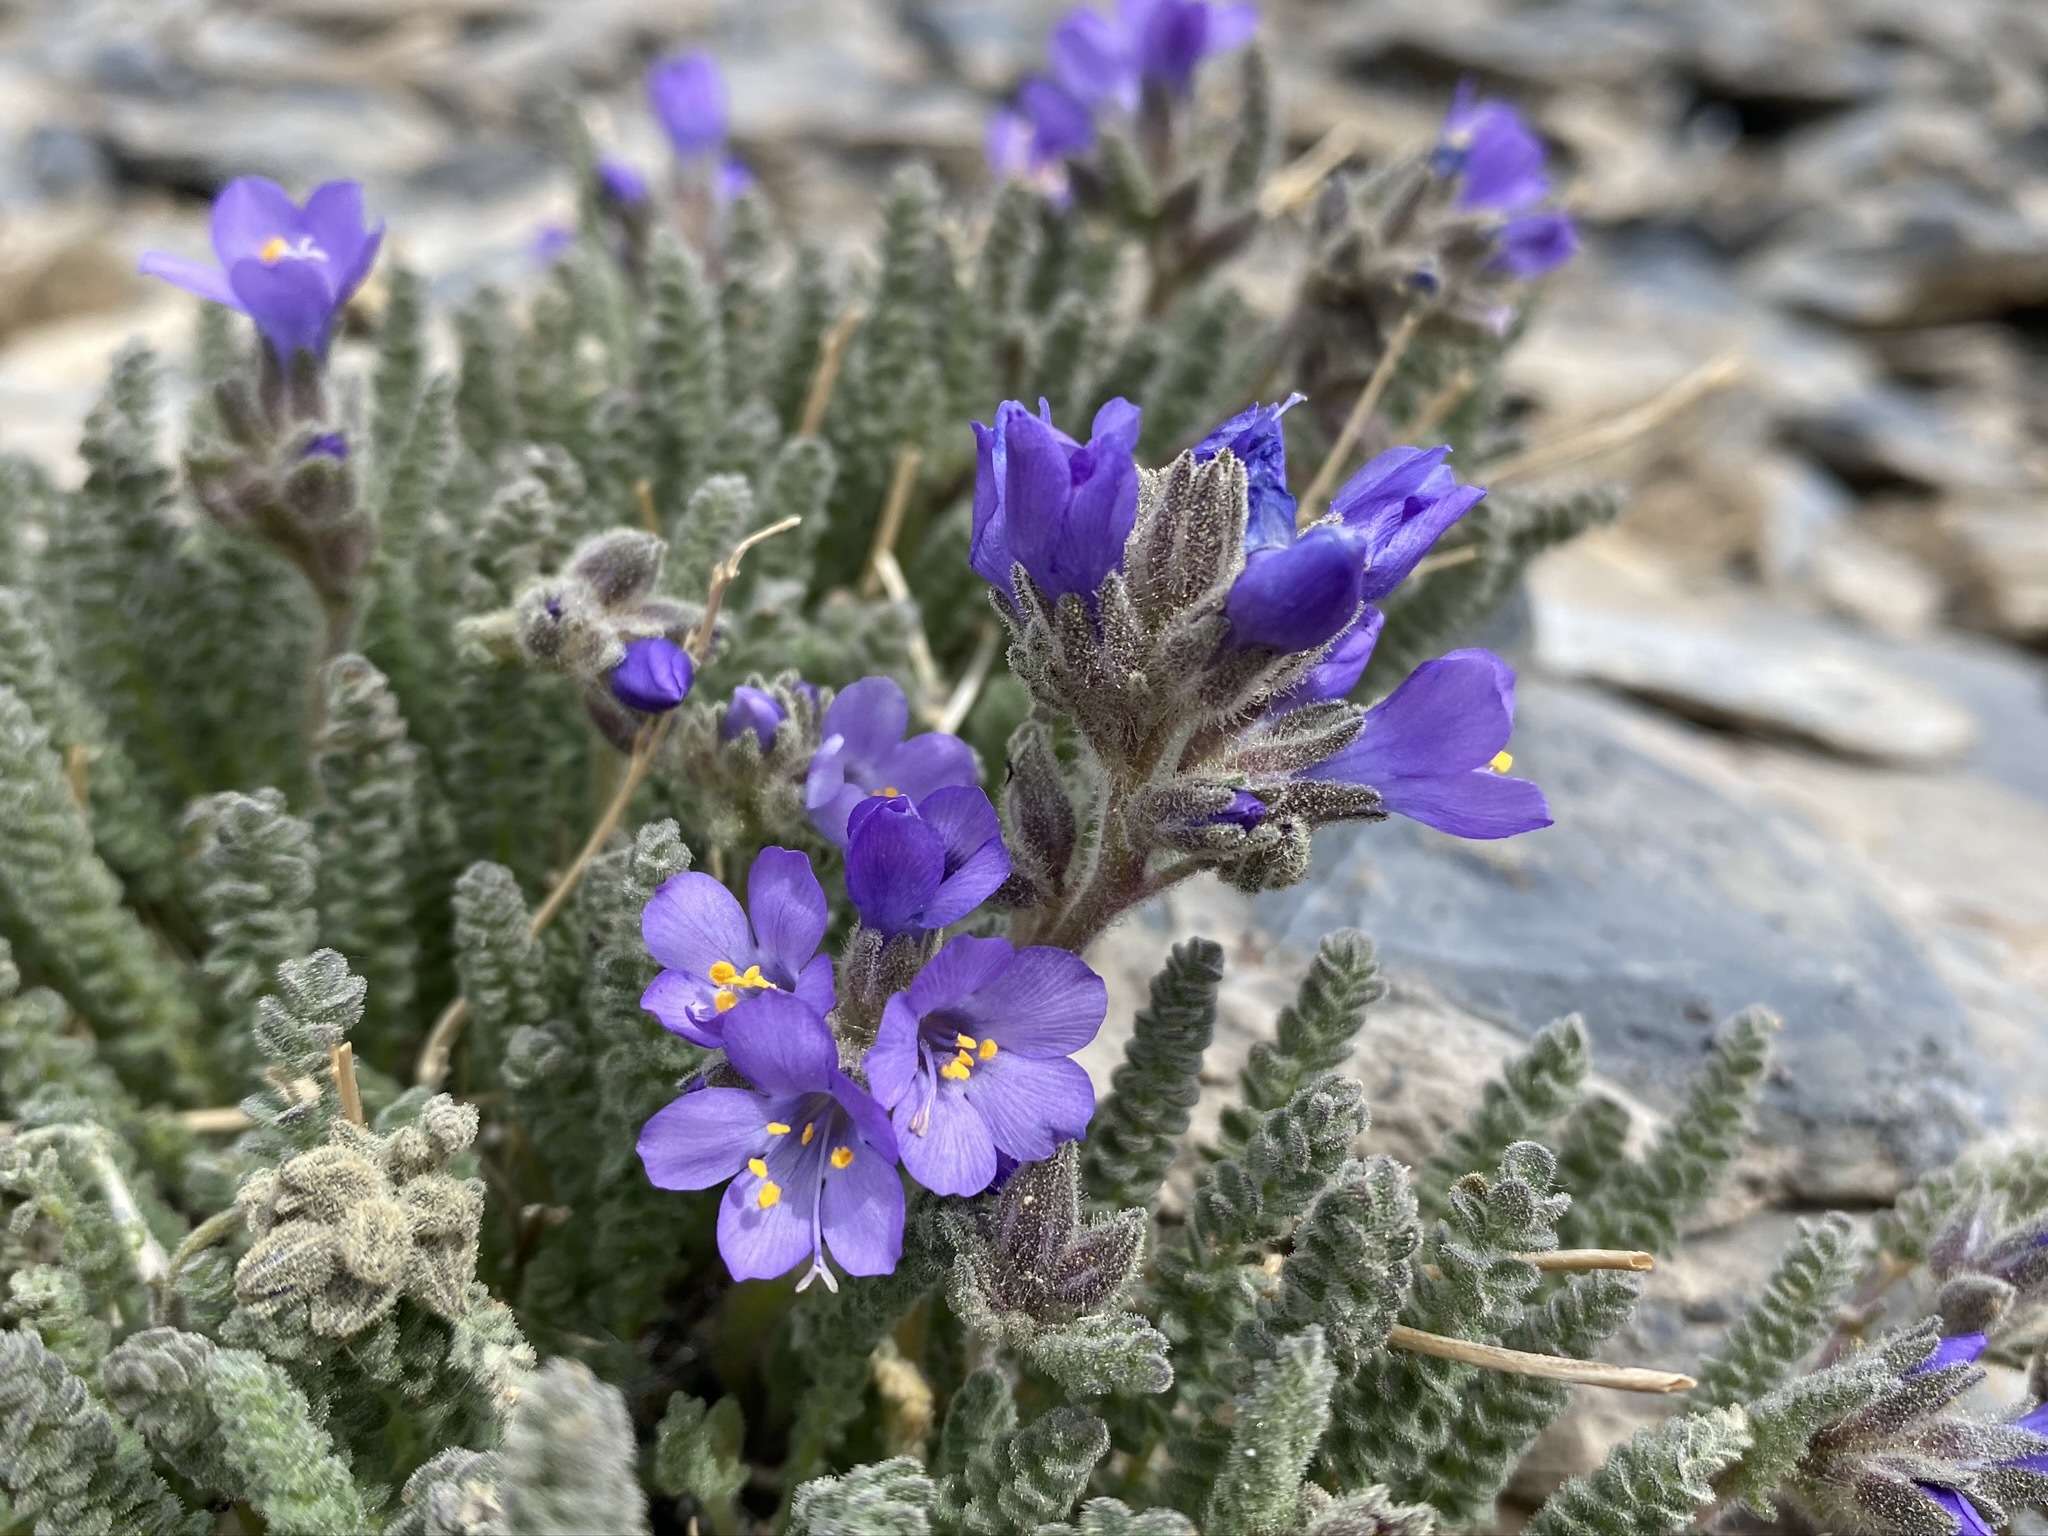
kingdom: Plantae
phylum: Tracheophyta
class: Magnoliopsida
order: Ericales
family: Polemoniaceae
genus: Polemonium
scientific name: Polemonium viscosum
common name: Skunk jacob's-ladder
